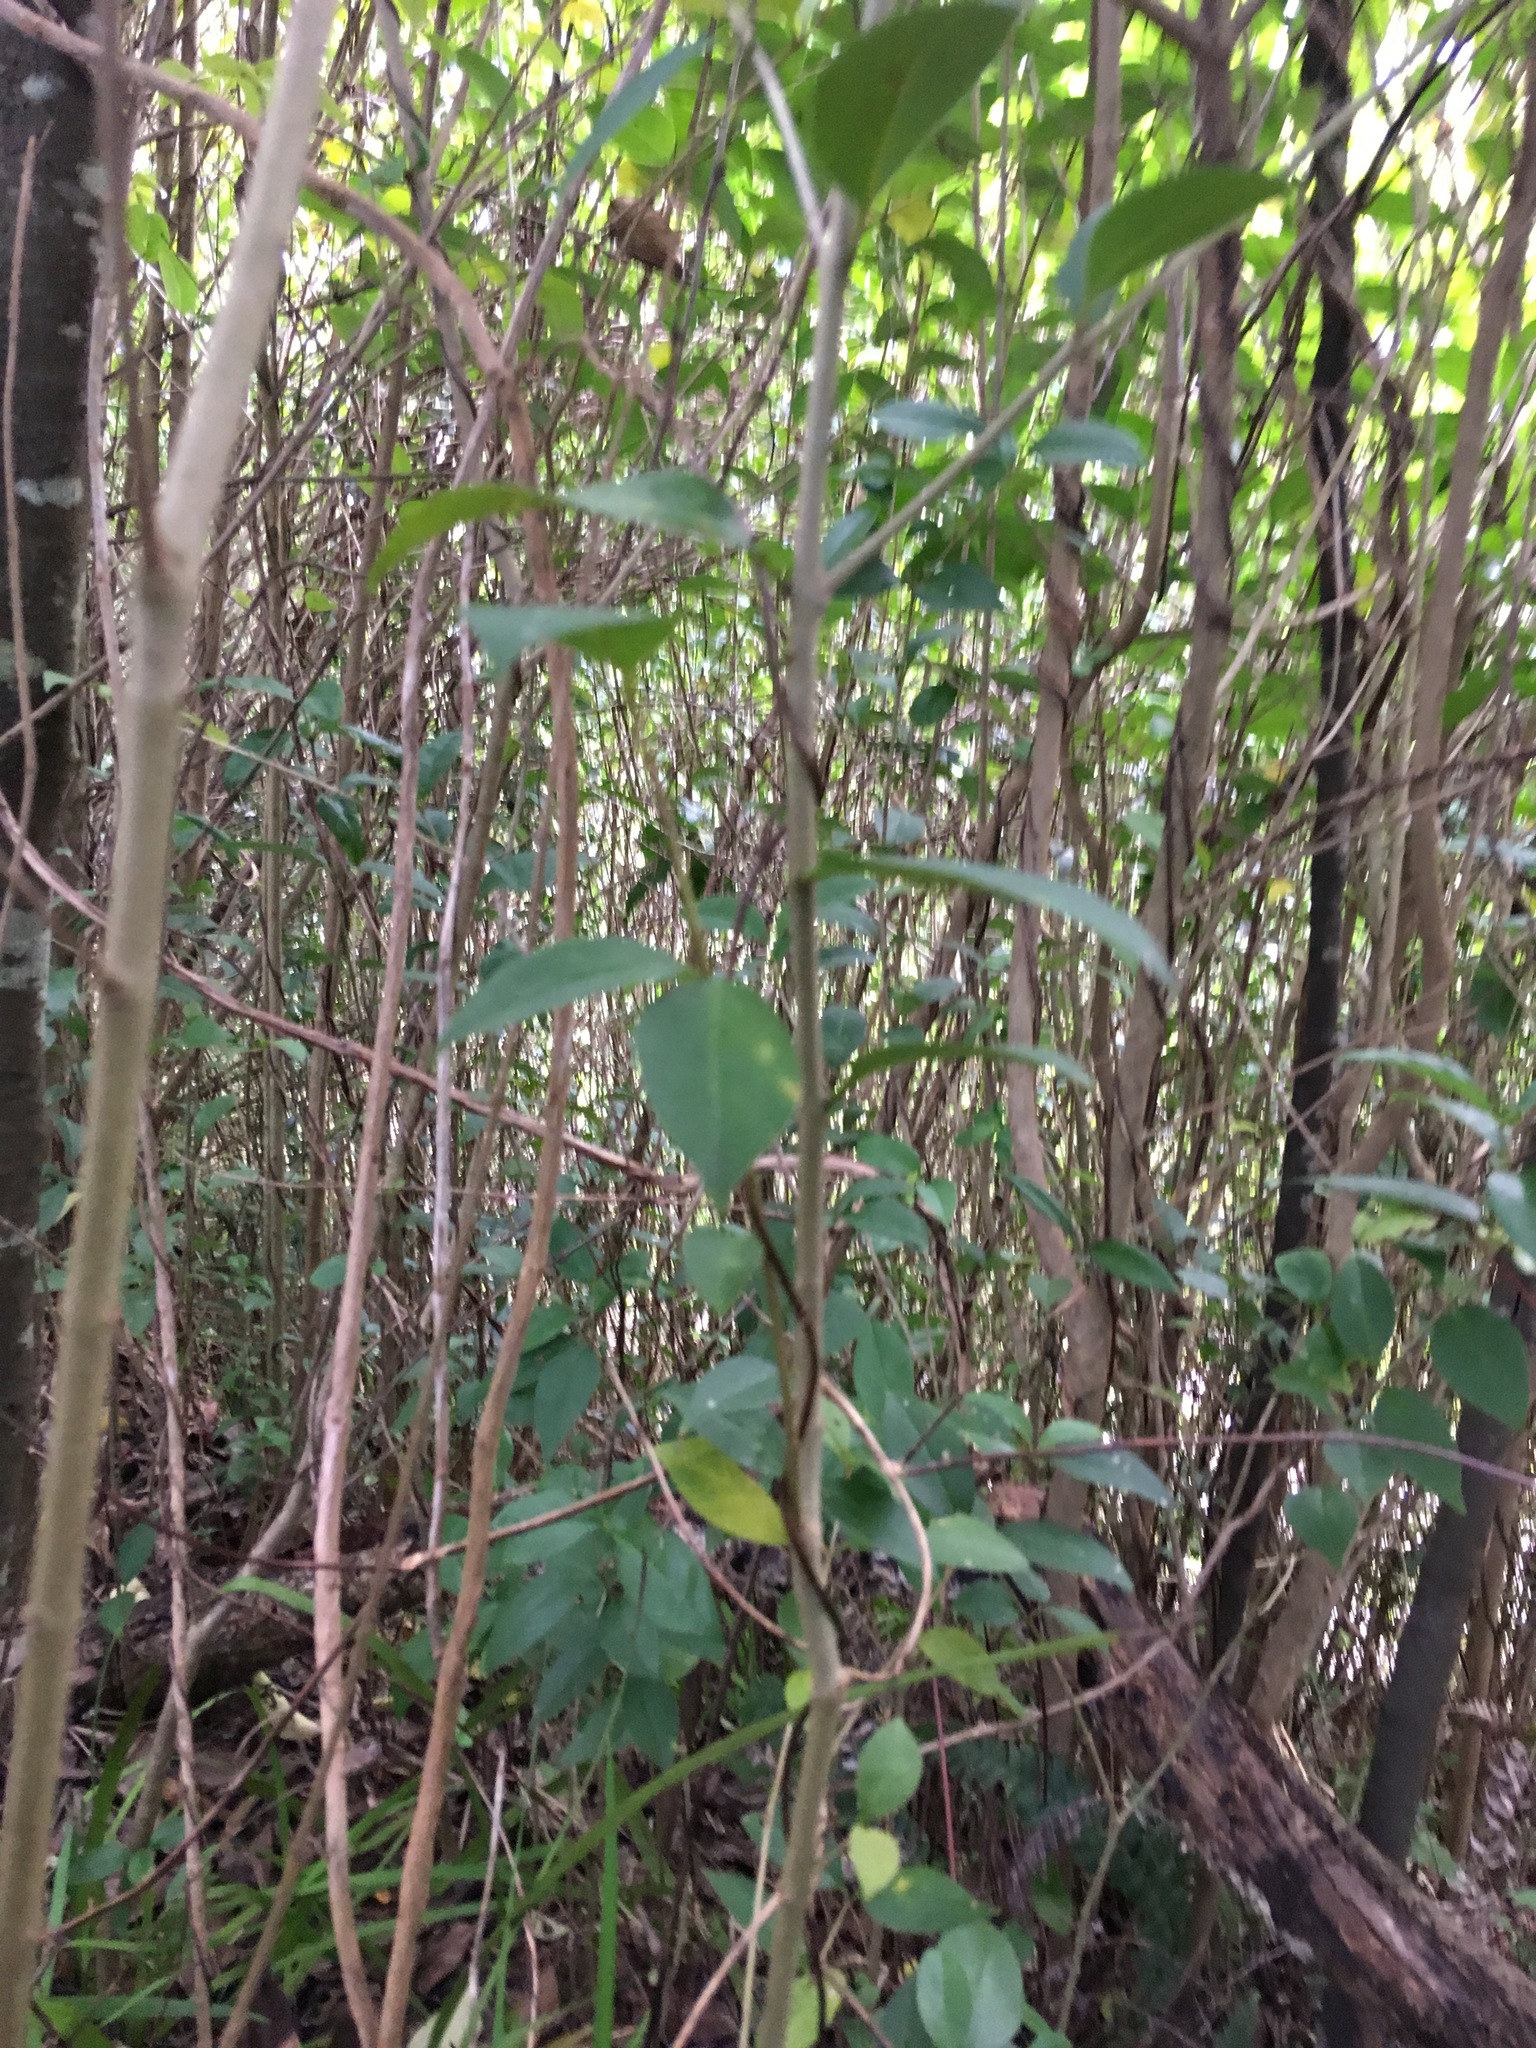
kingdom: Plantae
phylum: Tracheophyta
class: Magnoliopsida
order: Dipsacales
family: Caprifoliaceae
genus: Lonicera
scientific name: Lonicera japonica
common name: Japanese honeysuckle
